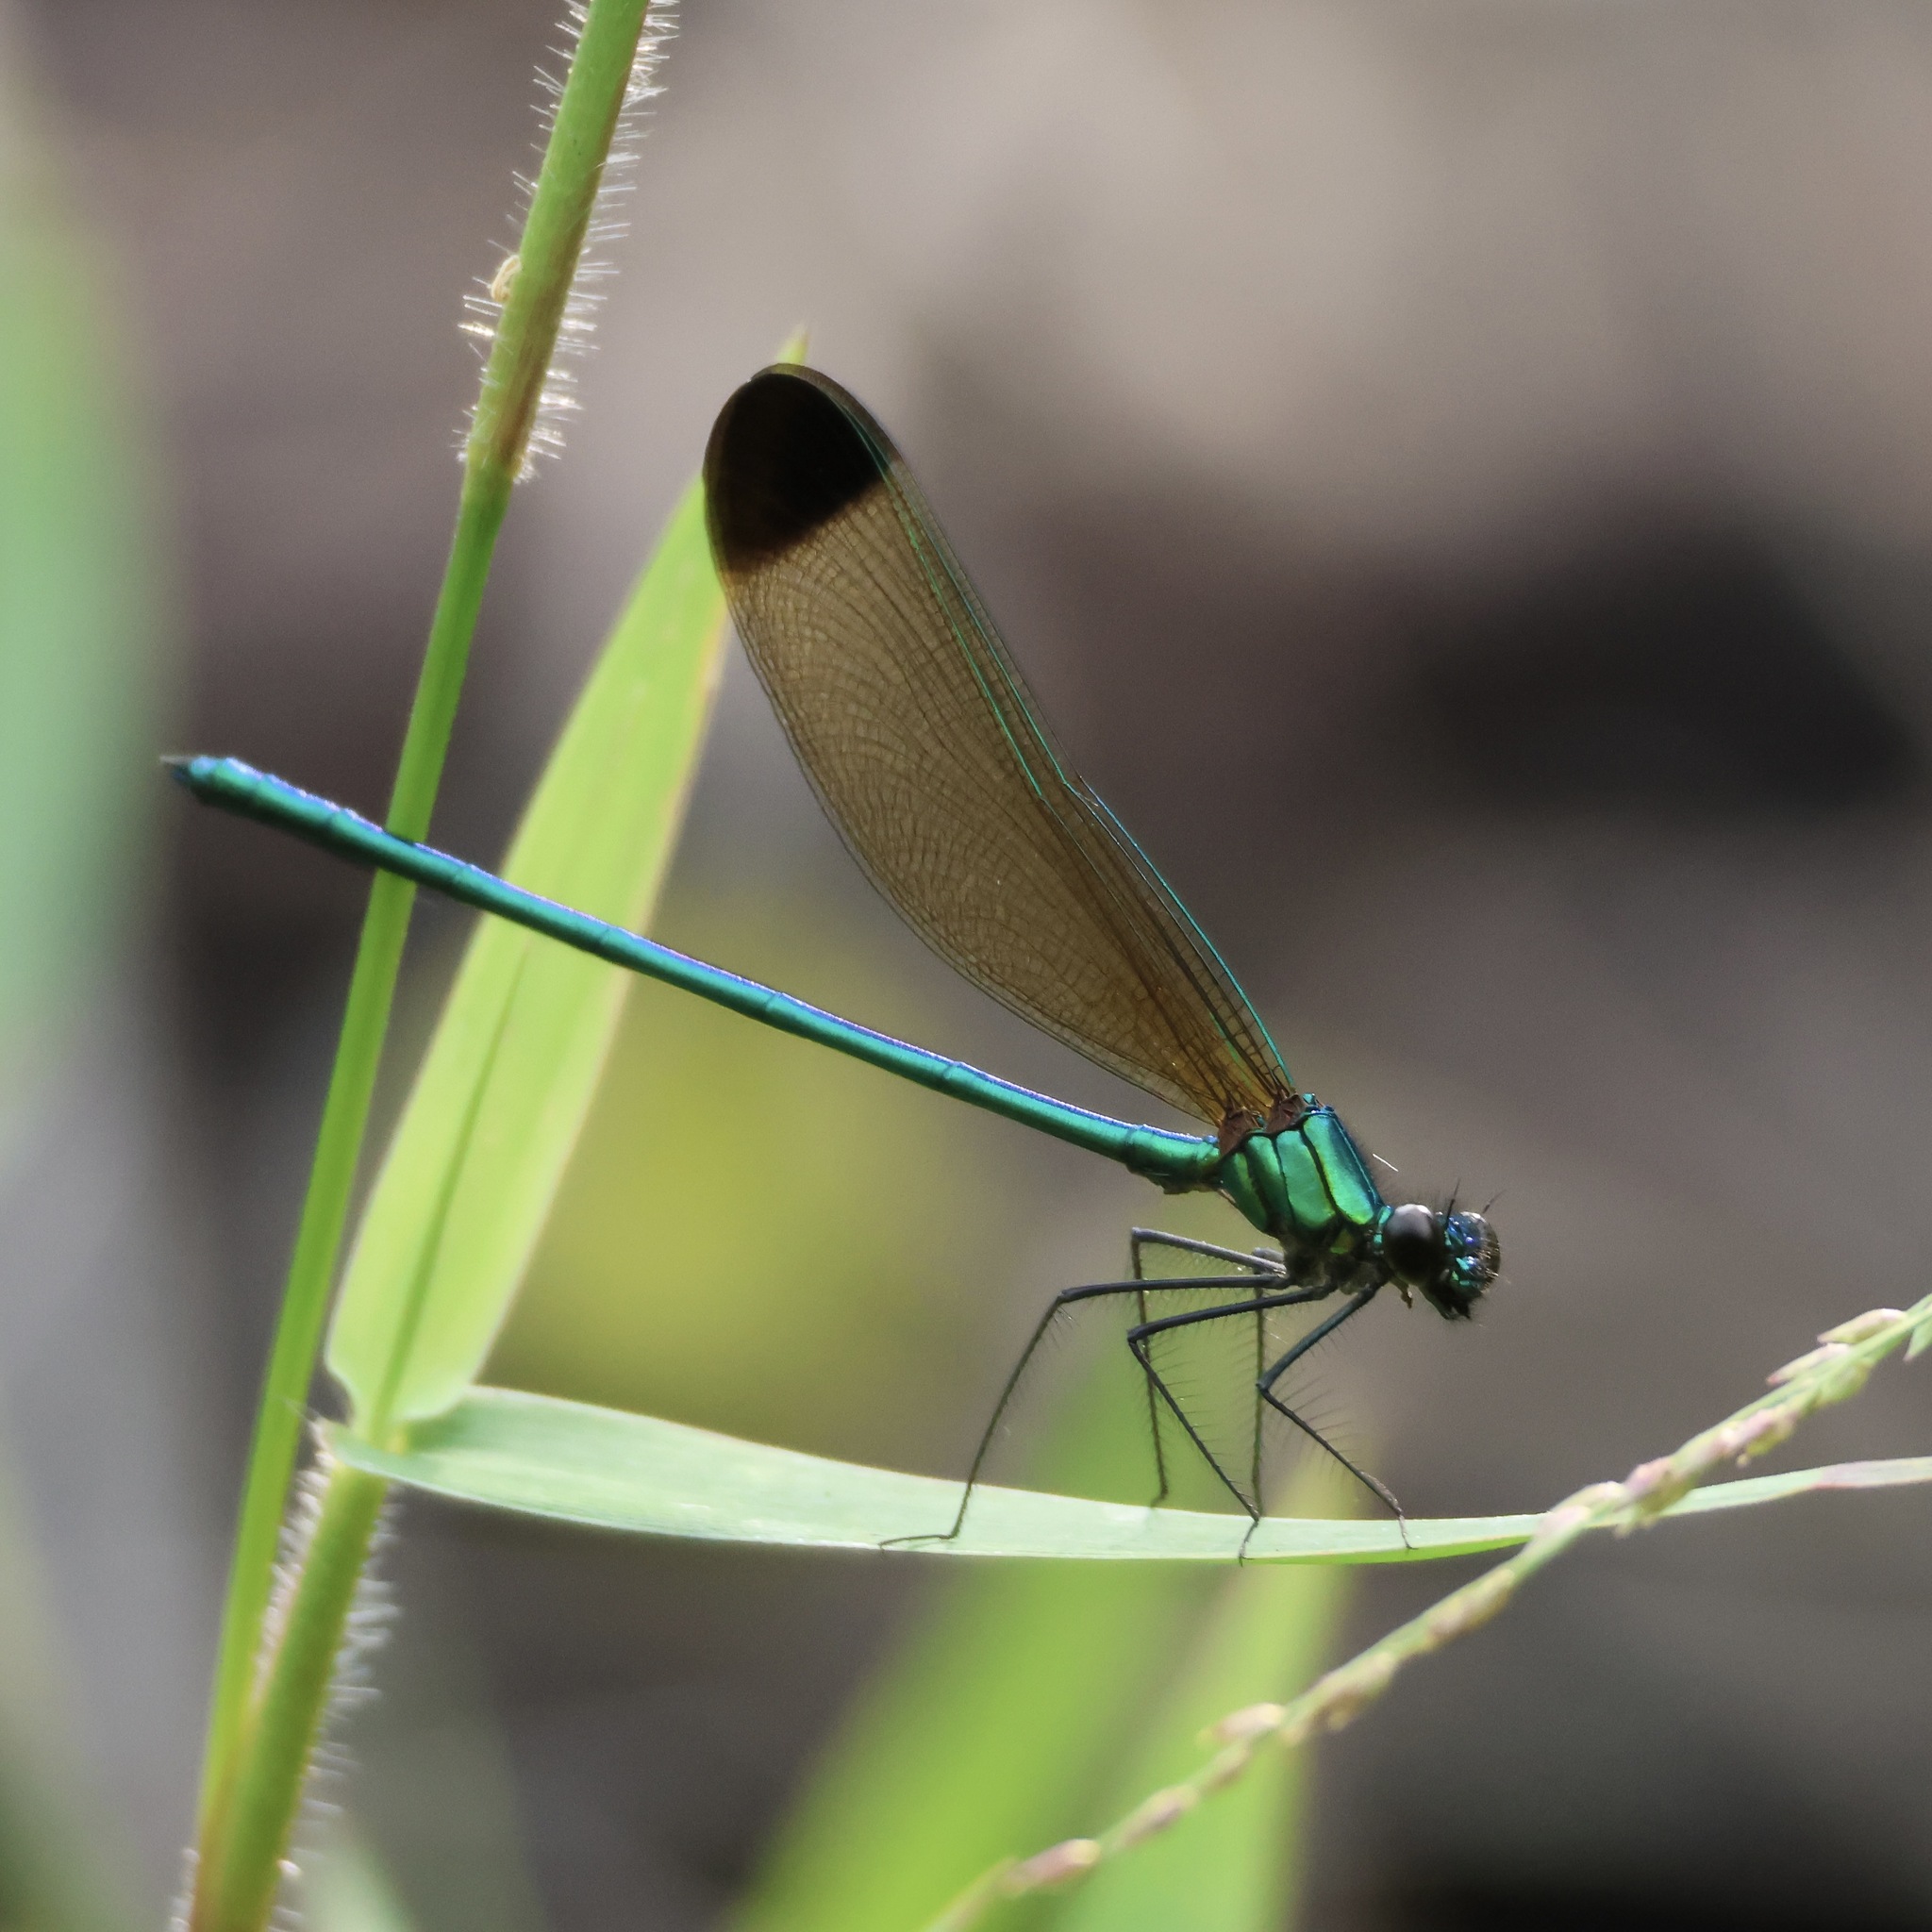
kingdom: Animalia
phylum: Arthropoda
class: Insecta
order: Odonata
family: Calopterygidae
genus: Calopteryx
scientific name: Calopteryx dimidiata
